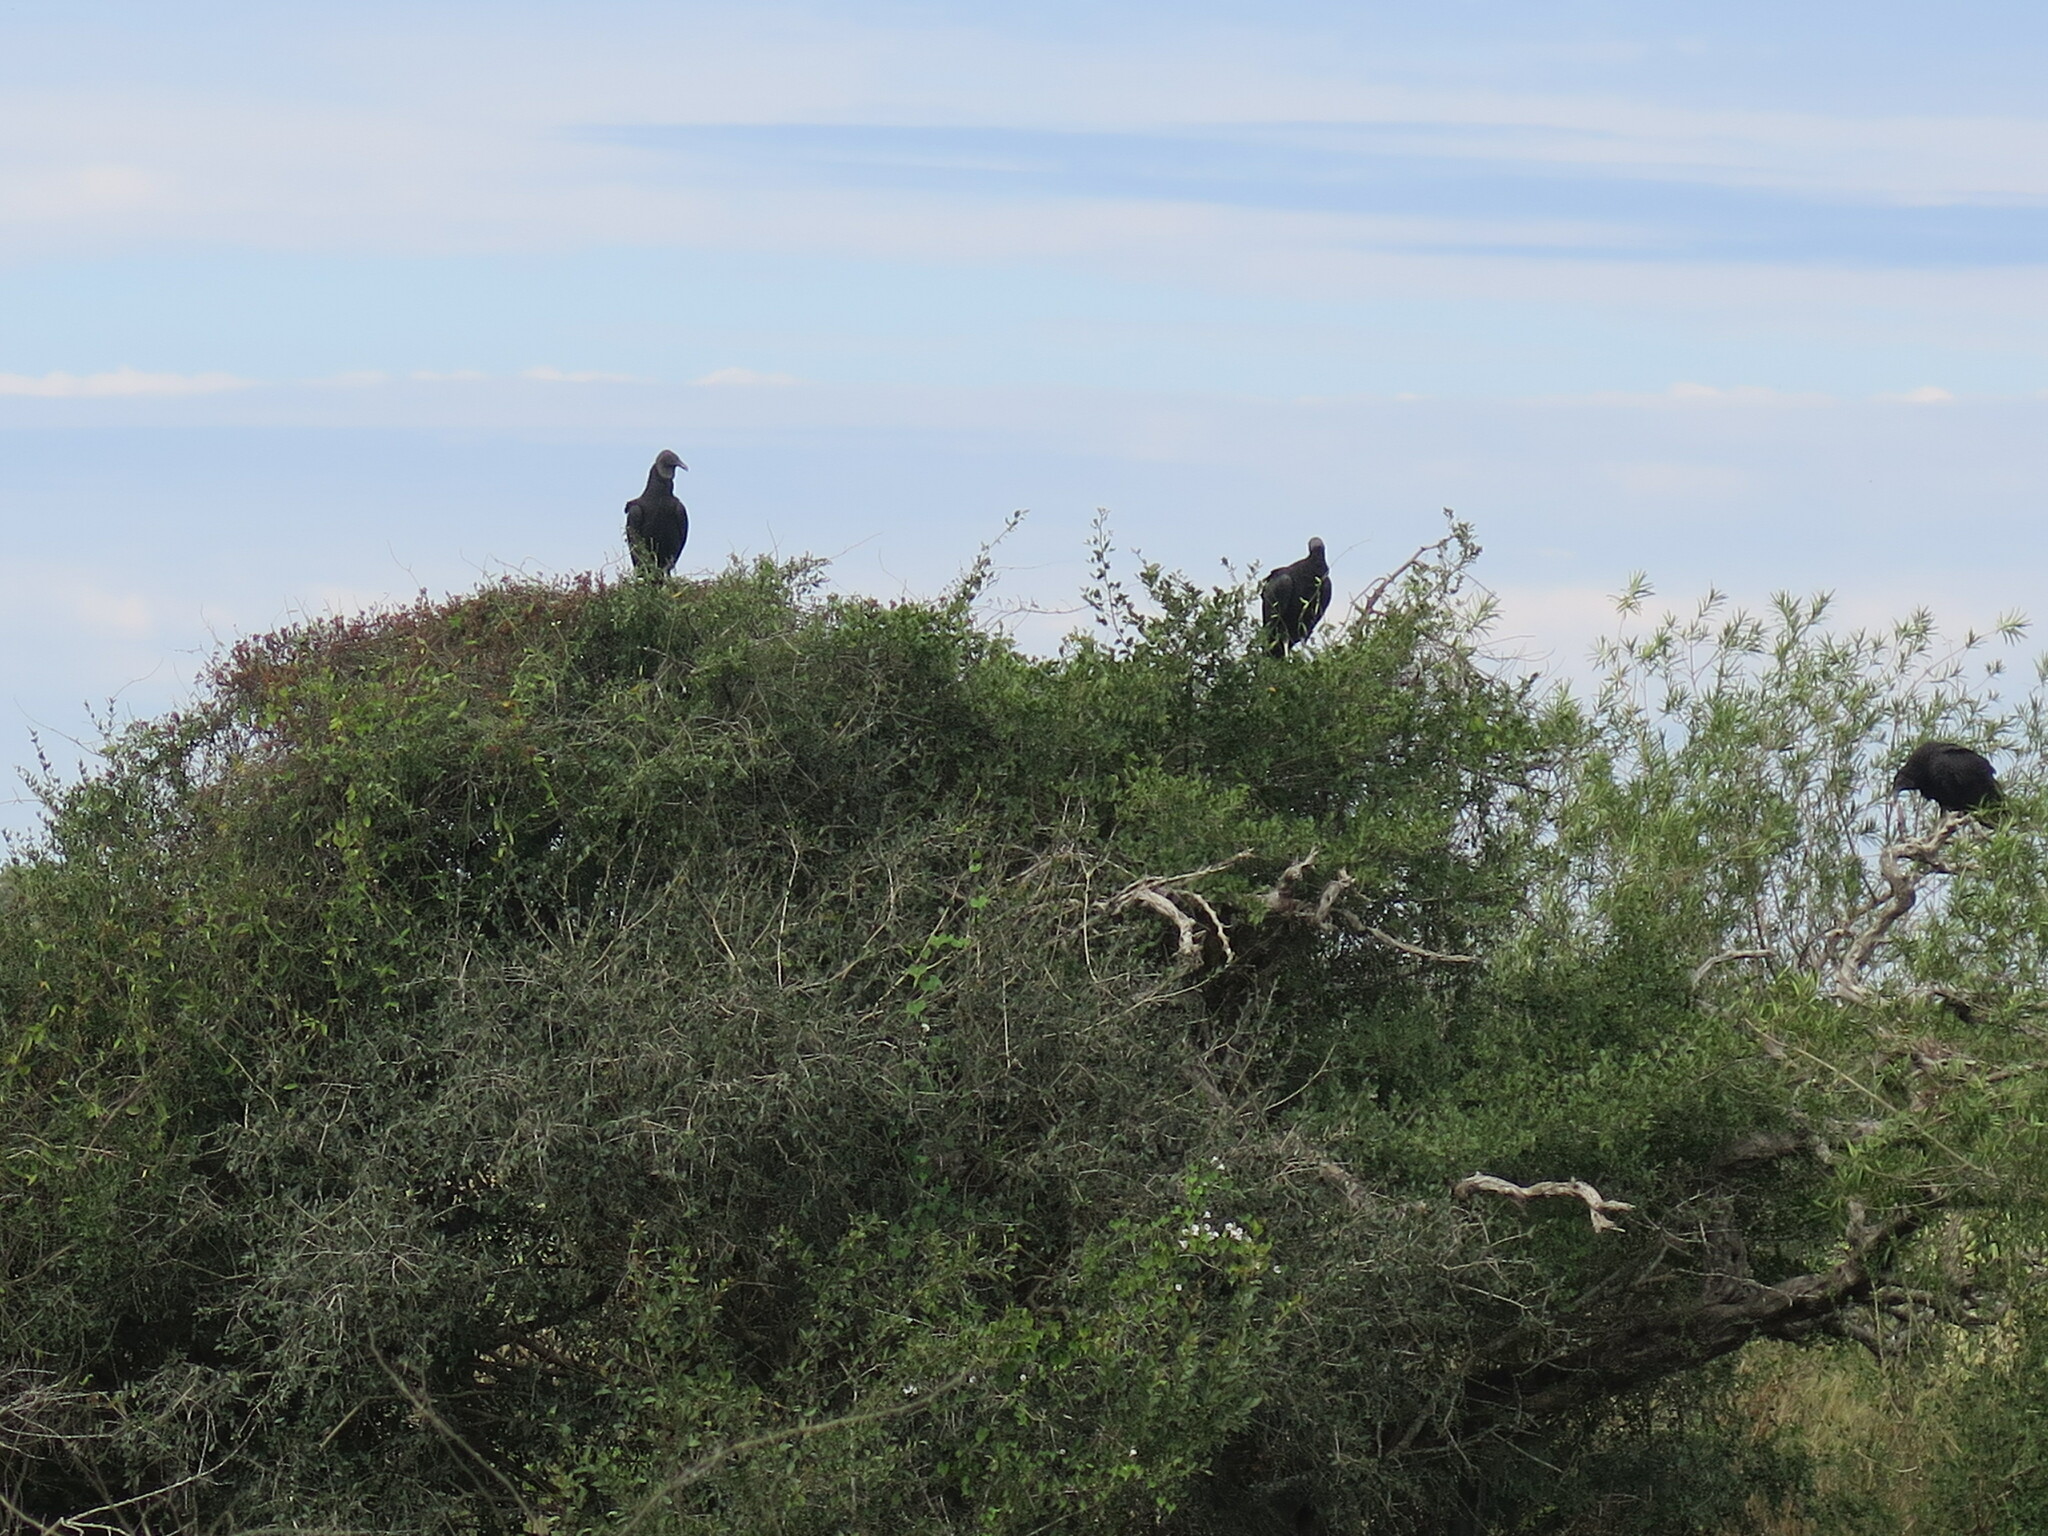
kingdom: Animalia
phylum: Chordata
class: Aves
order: Accipitriformes
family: Cathartidae
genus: Coragyps
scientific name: Coragyps atratus
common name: Black vulture
